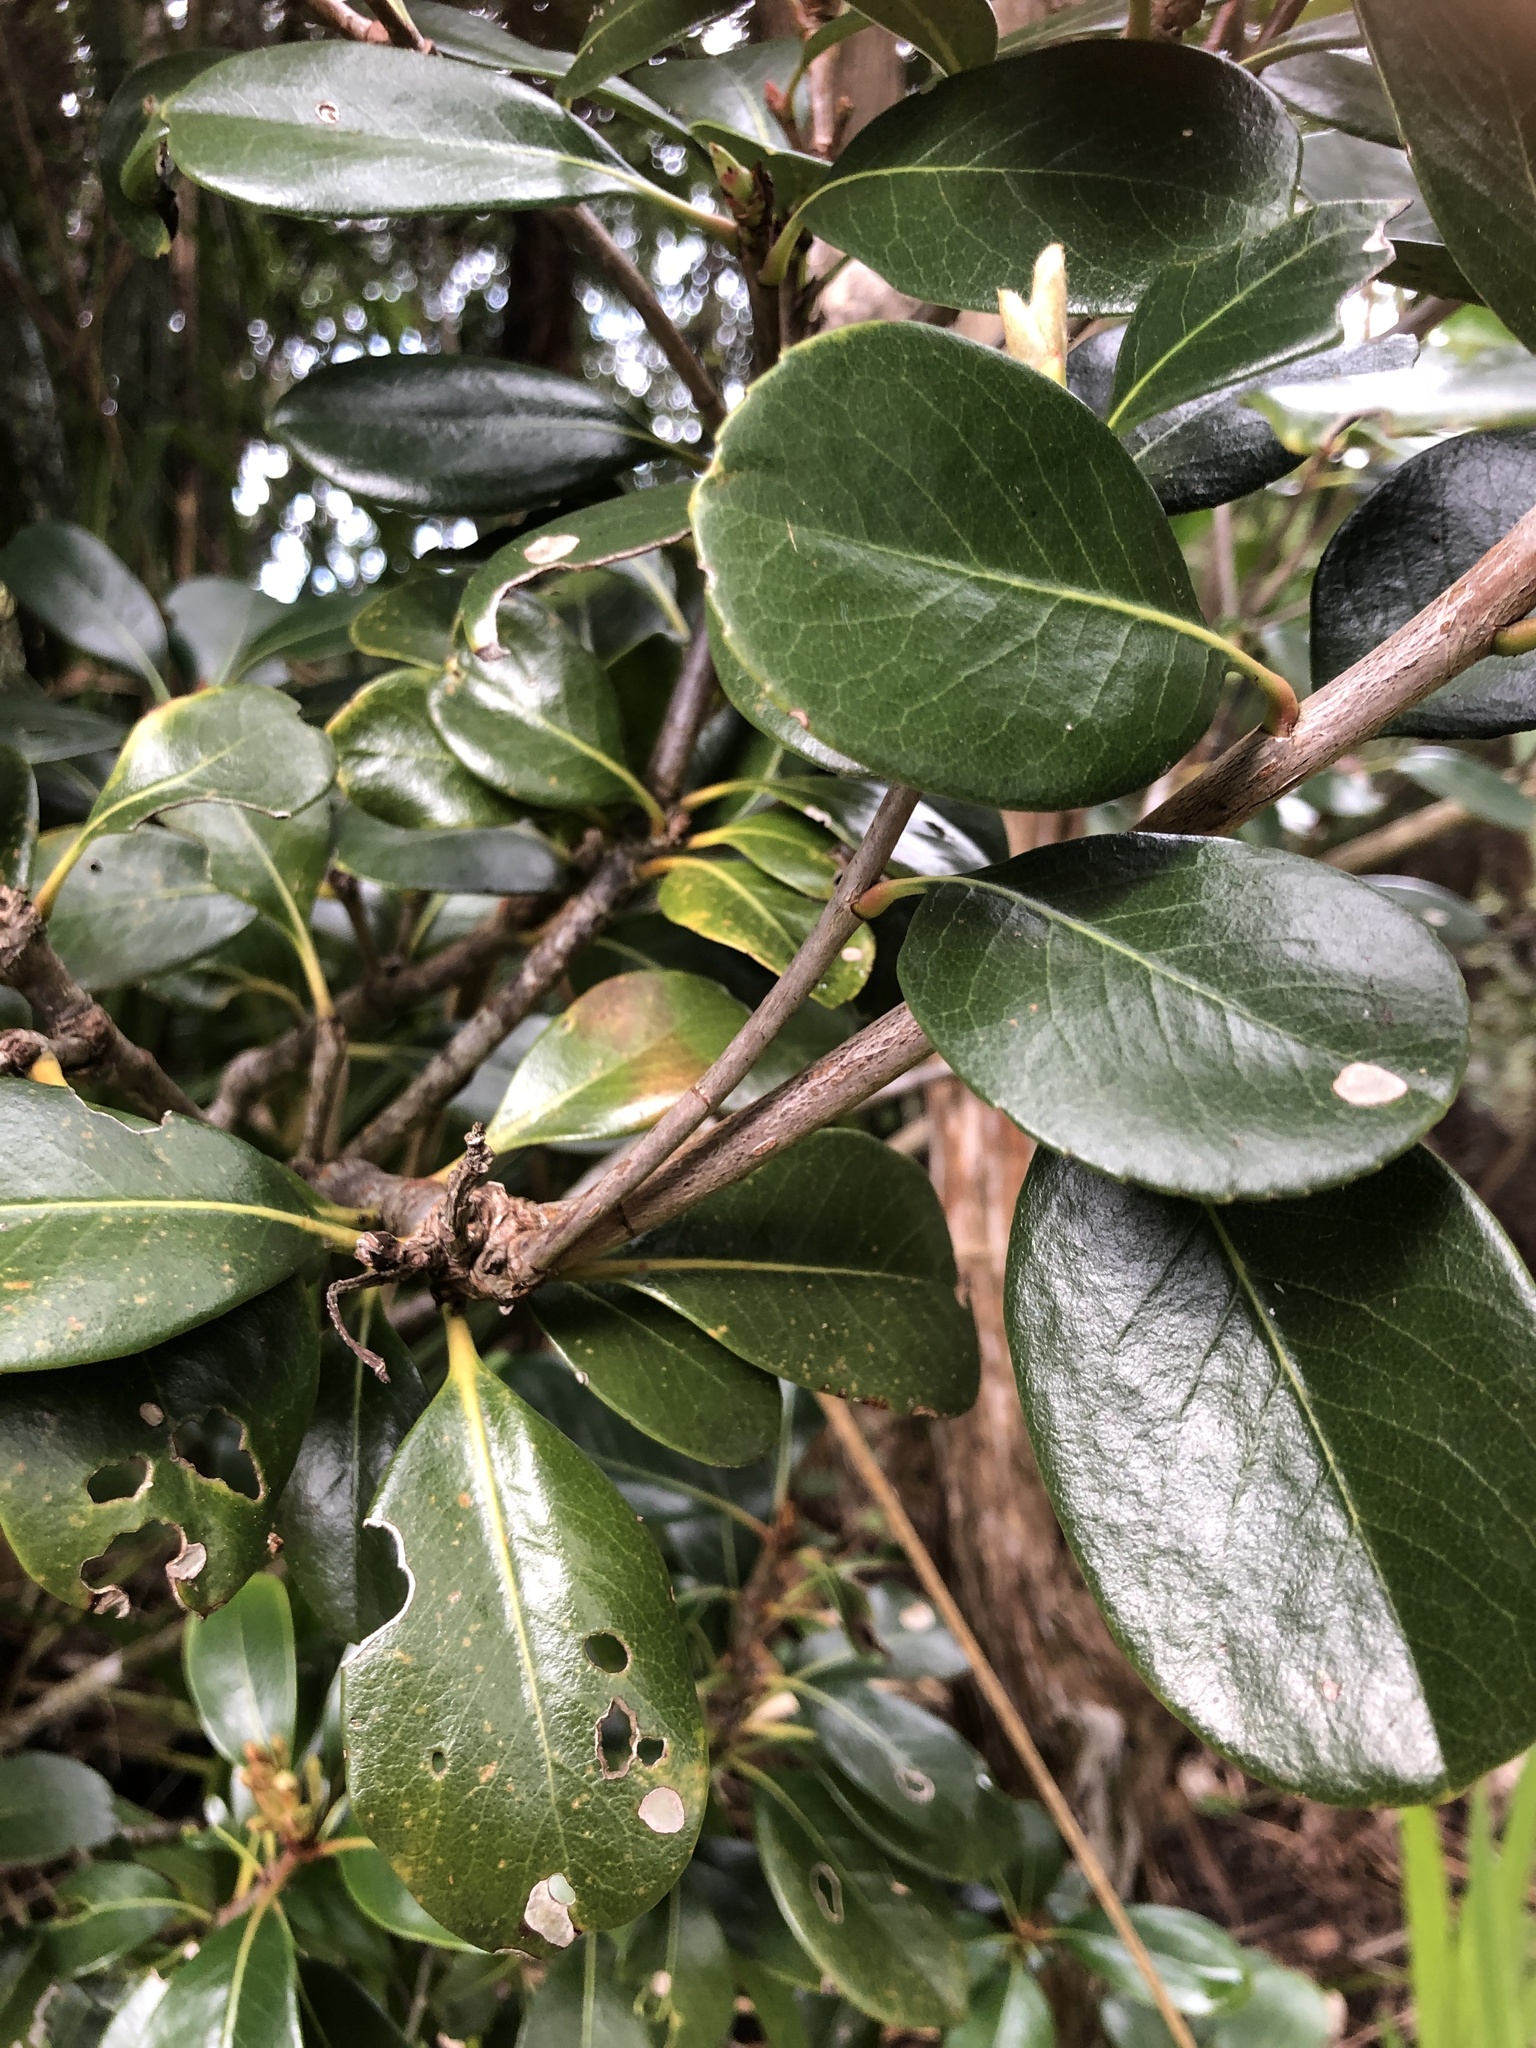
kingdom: Plantae
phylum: Tracheophyta
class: Magnoliopsida
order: Rosales
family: Rosaceae
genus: Rhaphiolepis
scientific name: Rhaphiolepis indica
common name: India-hawthorn
